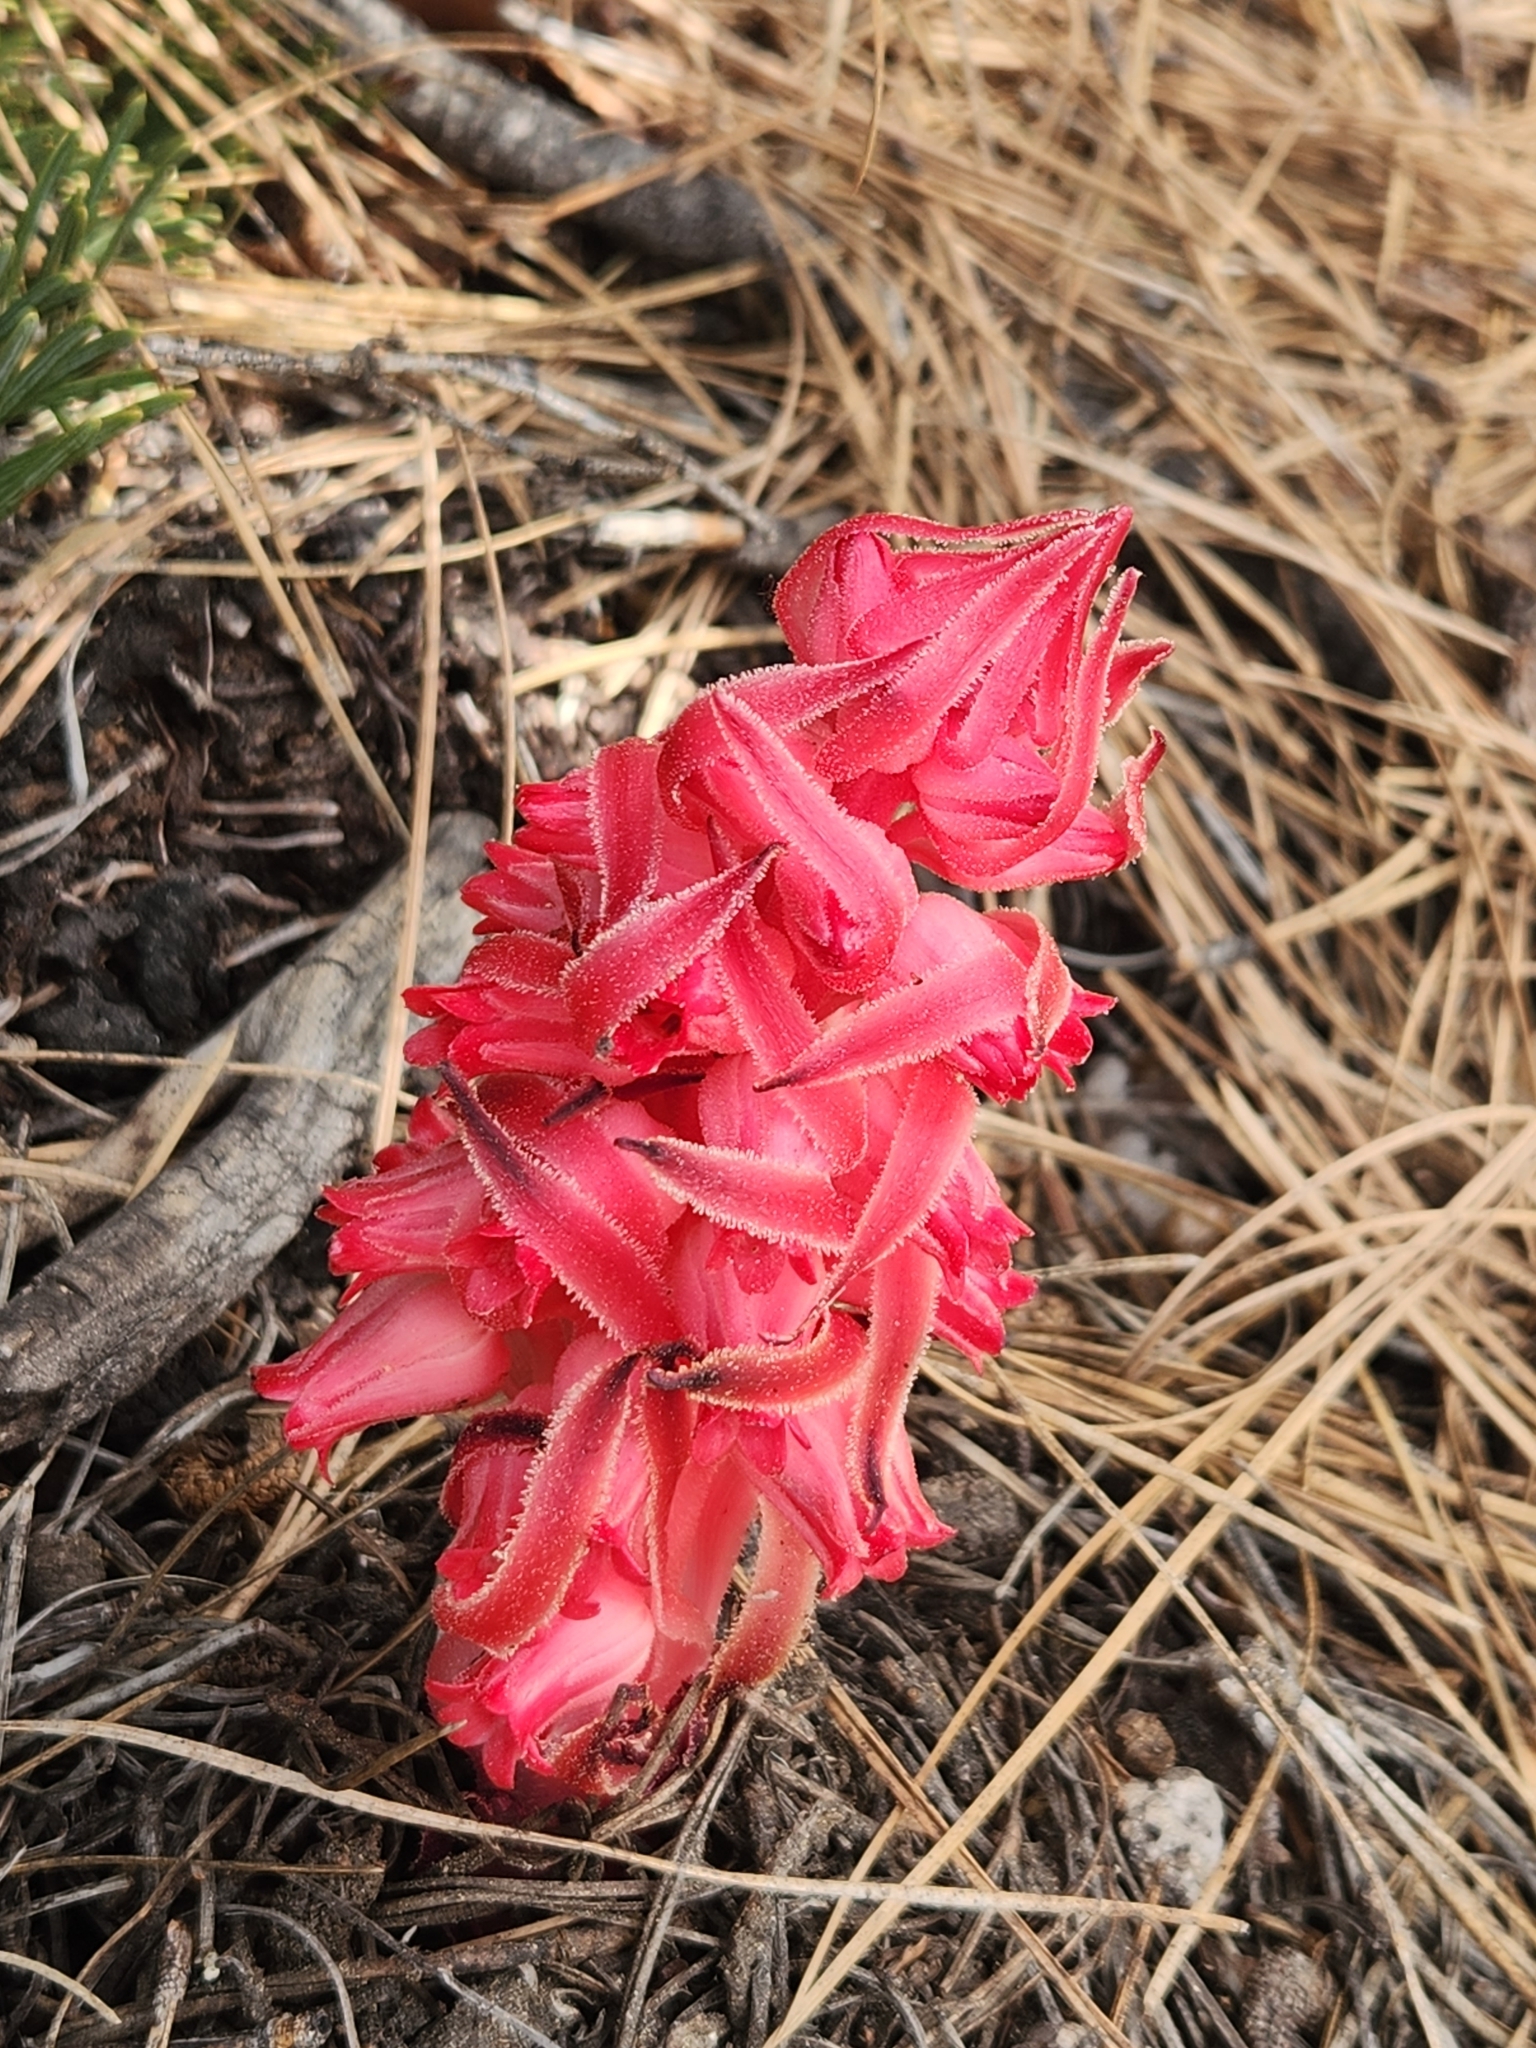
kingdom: Plantae
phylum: Tracheophyta
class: Magnoliopsida
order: Ericales
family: Ericaceae
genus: Sarcodes
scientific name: Sarcodes sanguinea
